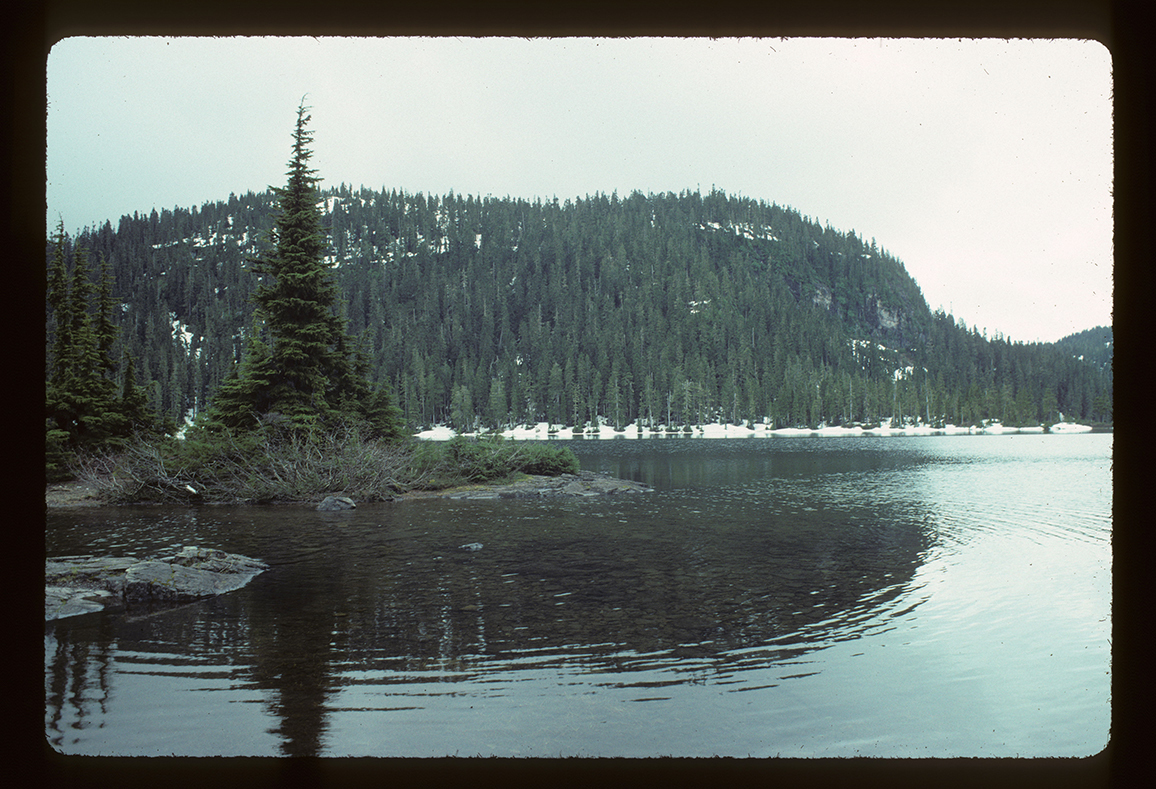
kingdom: Plantae
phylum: Tracheophyta
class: Pinopsida
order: Pinales
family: Pinaceae
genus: Tsuga
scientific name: Tsuga mertensiana
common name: Mountain hemlock
